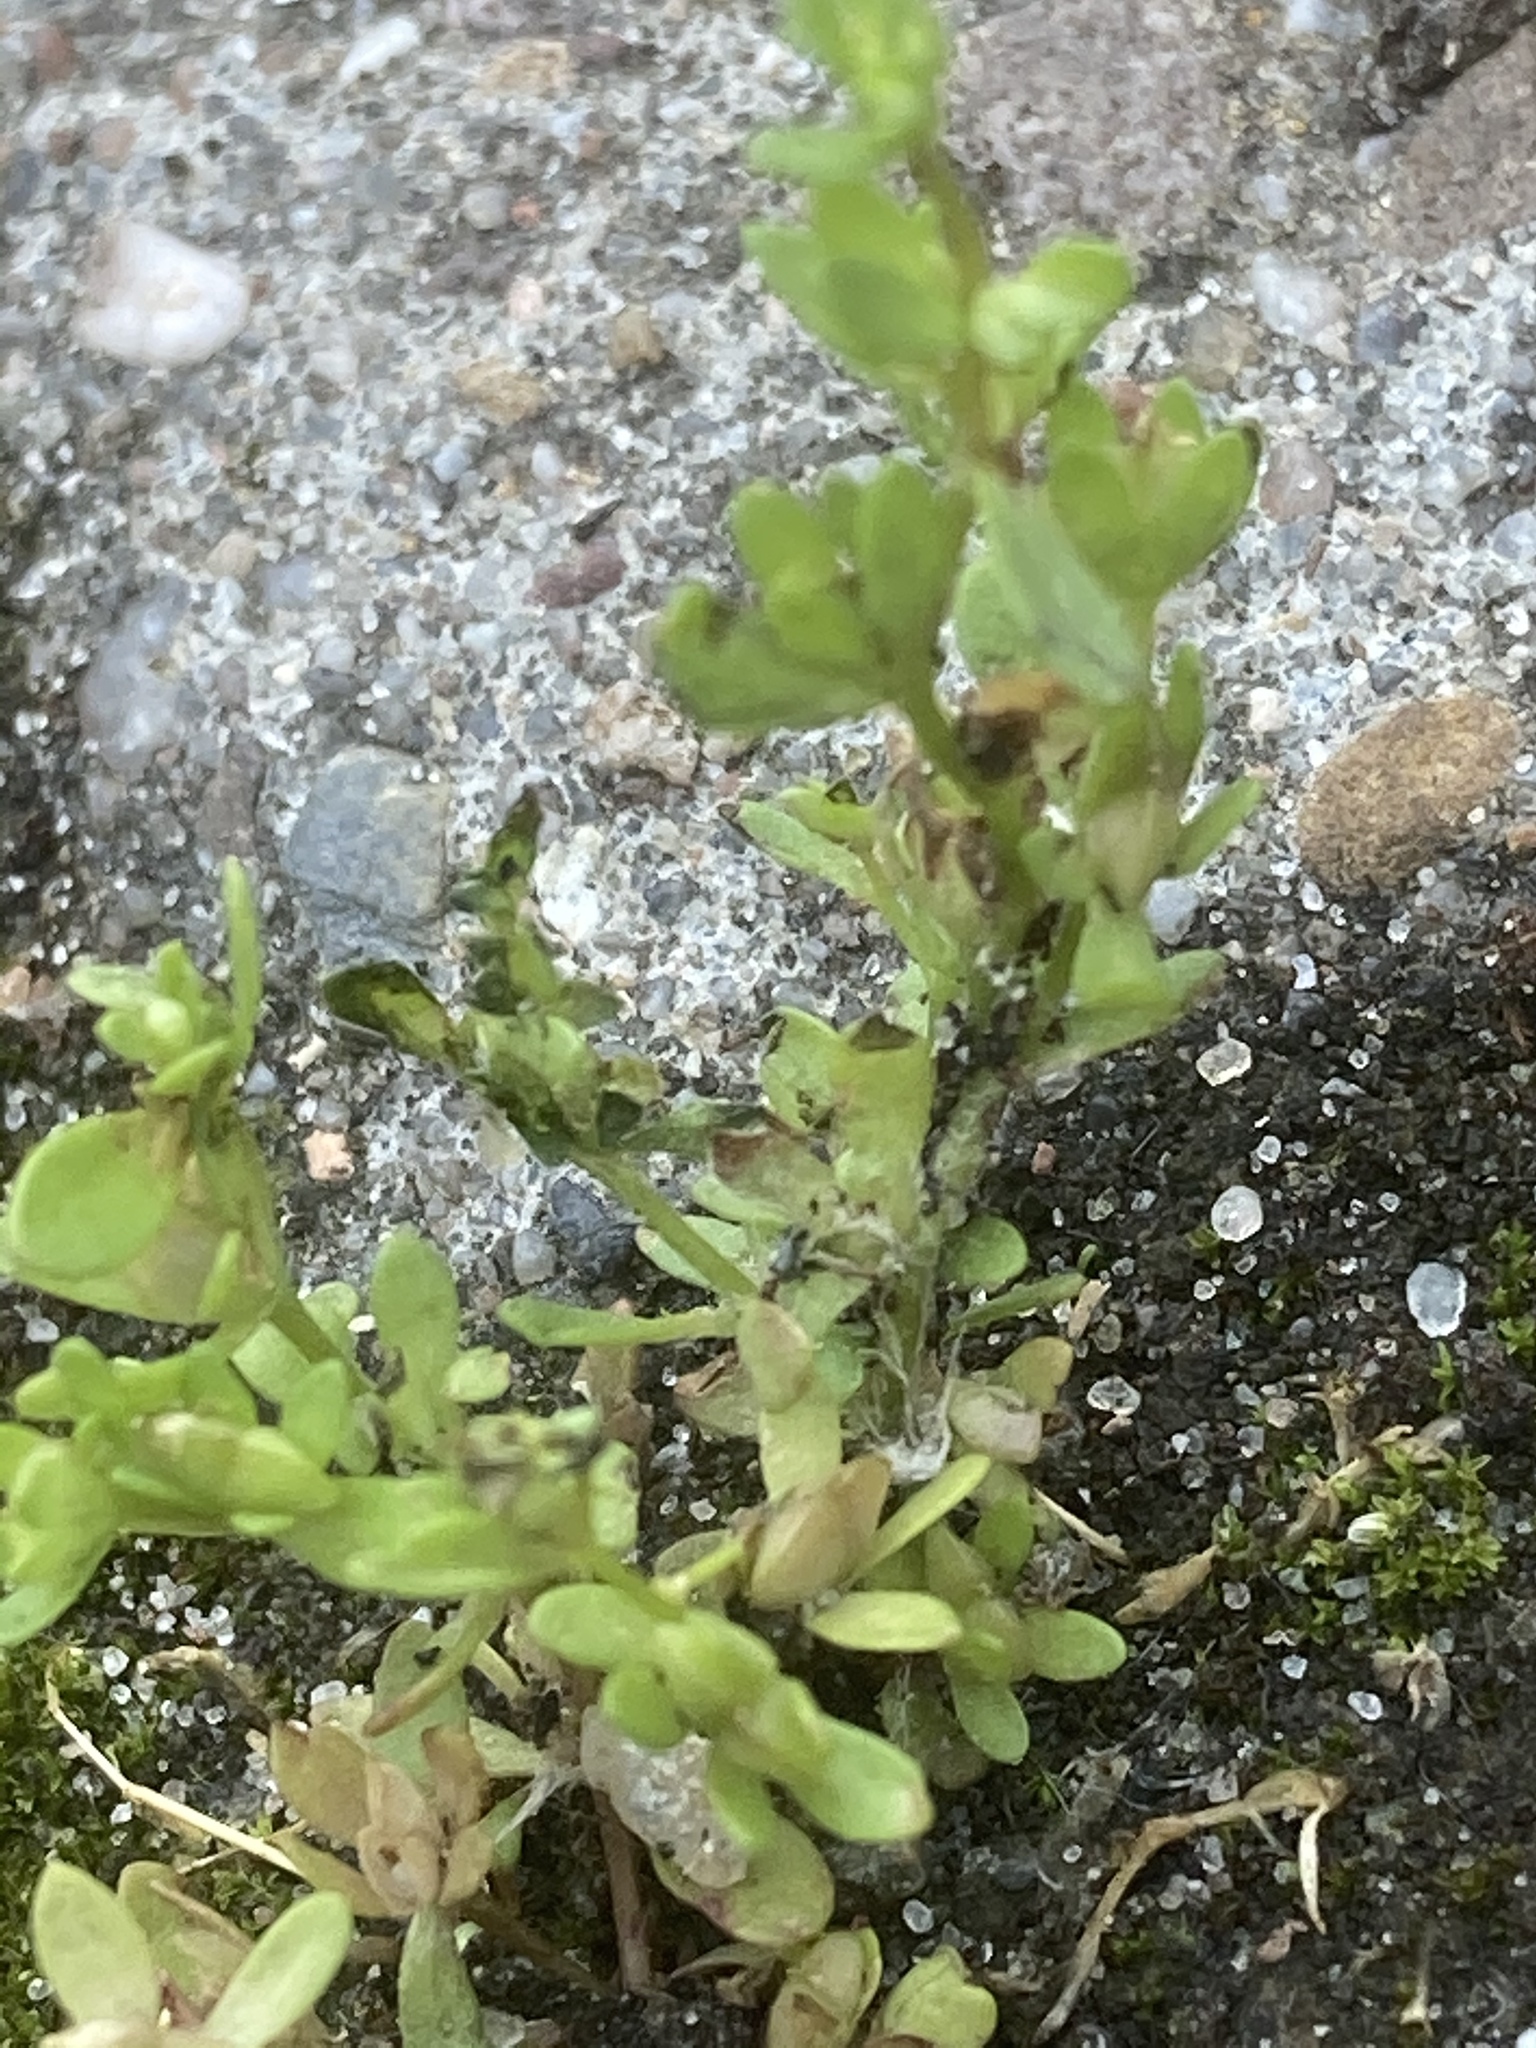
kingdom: Plantae
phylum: Tracheophyta
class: Magnoliopsida
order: Lamiales
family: Plantaginaceae
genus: Veronica
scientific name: Veronica peregrina
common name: Neckweed
